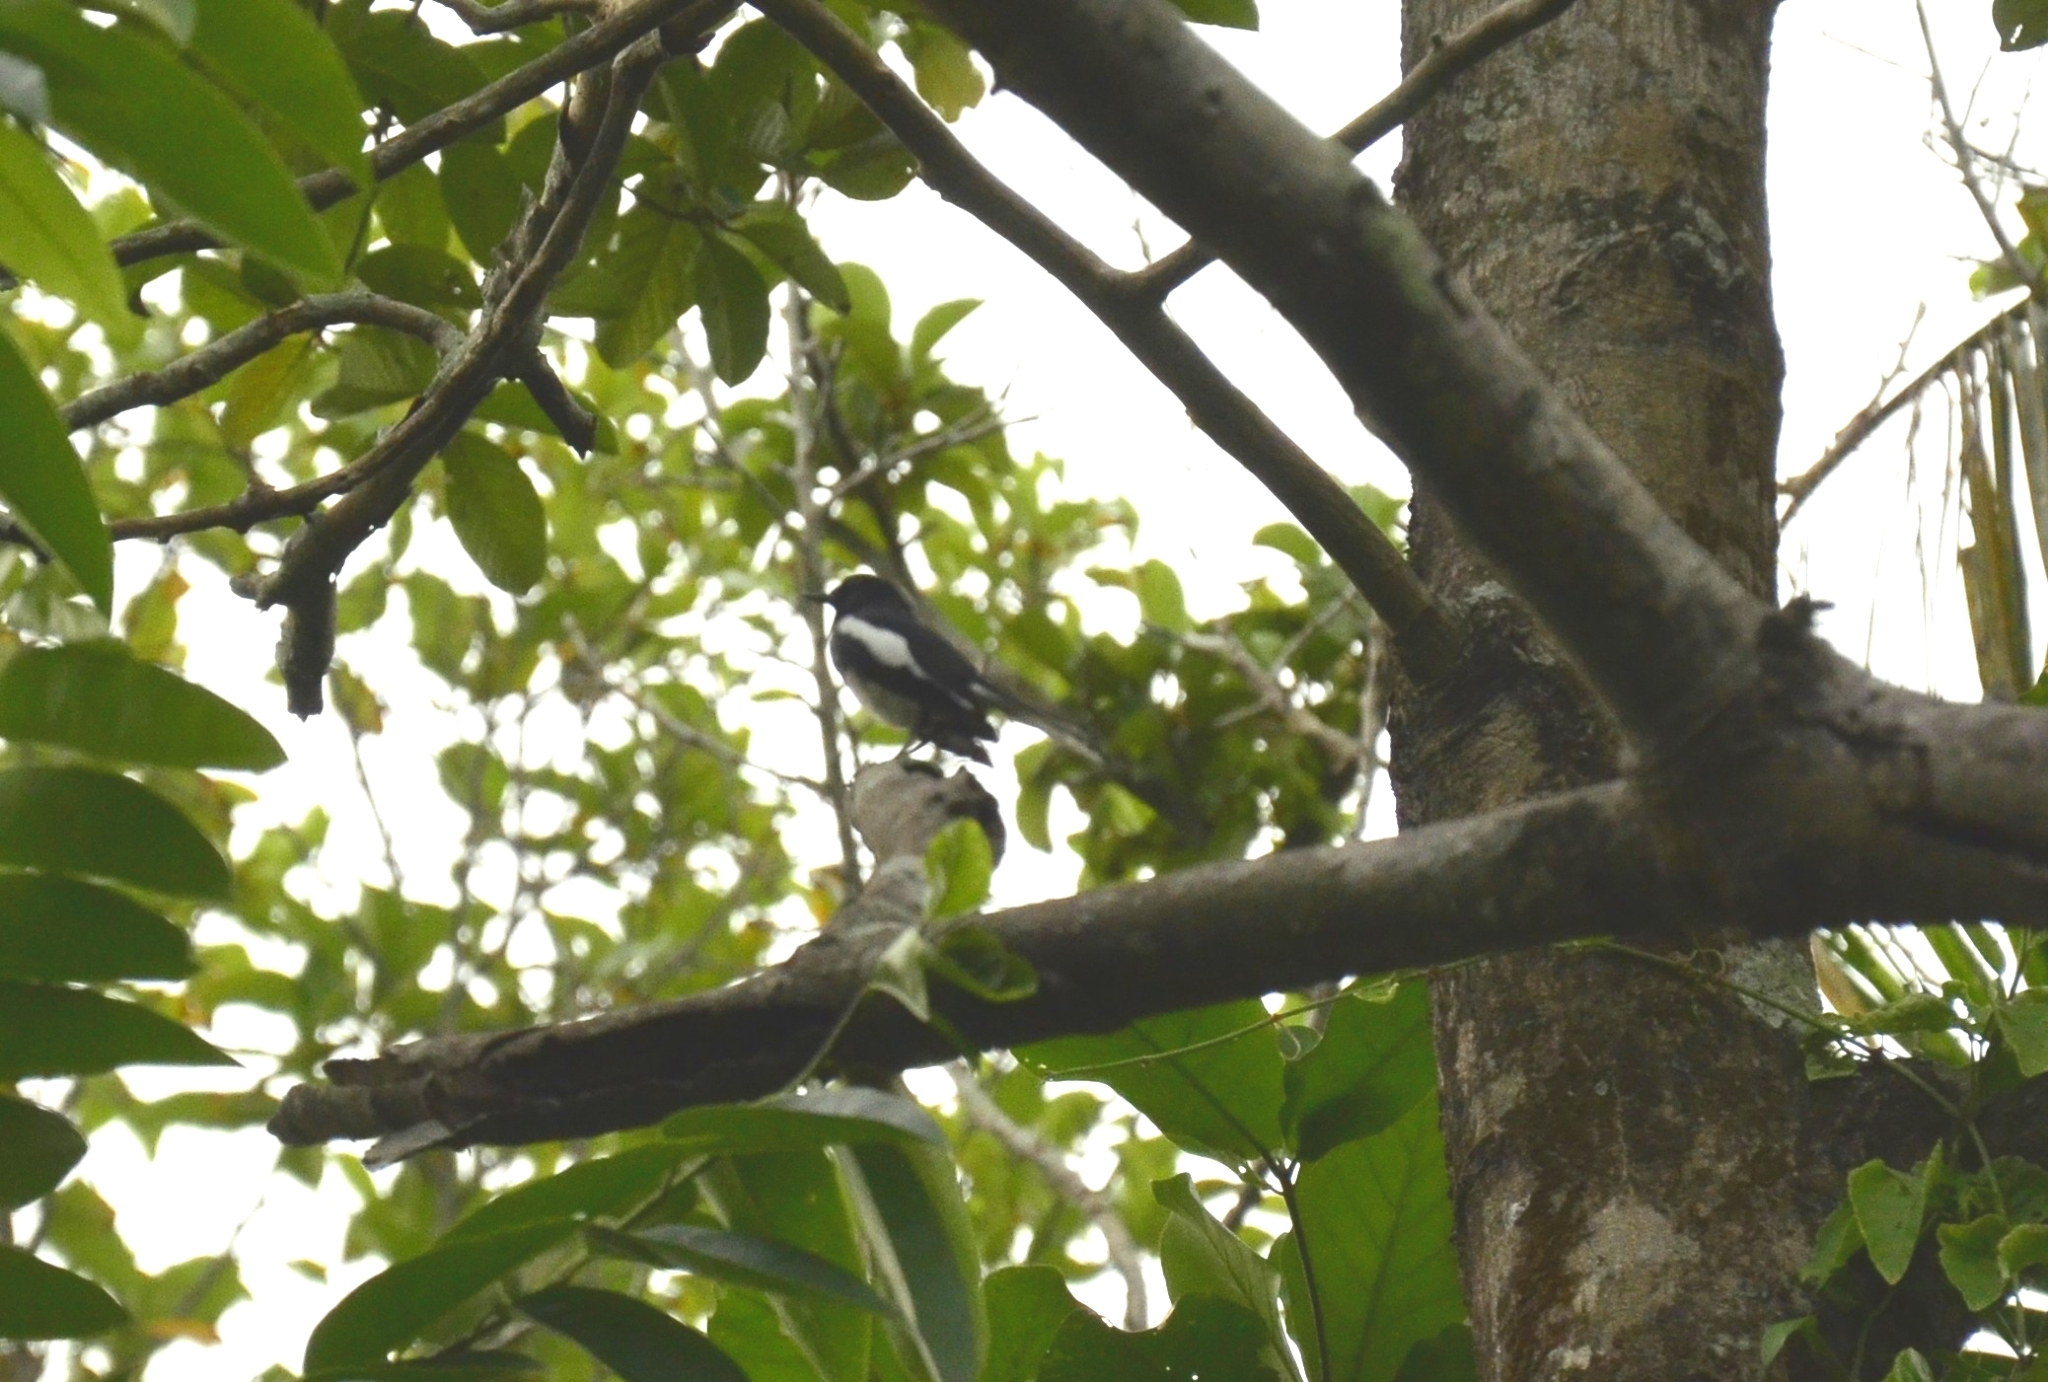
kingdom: Animalia
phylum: Chordata
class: Aves
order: Passeriformes
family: Muscicapidae
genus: Copsychus
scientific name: Copsychus saularis
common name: Oriental magpie-robin
